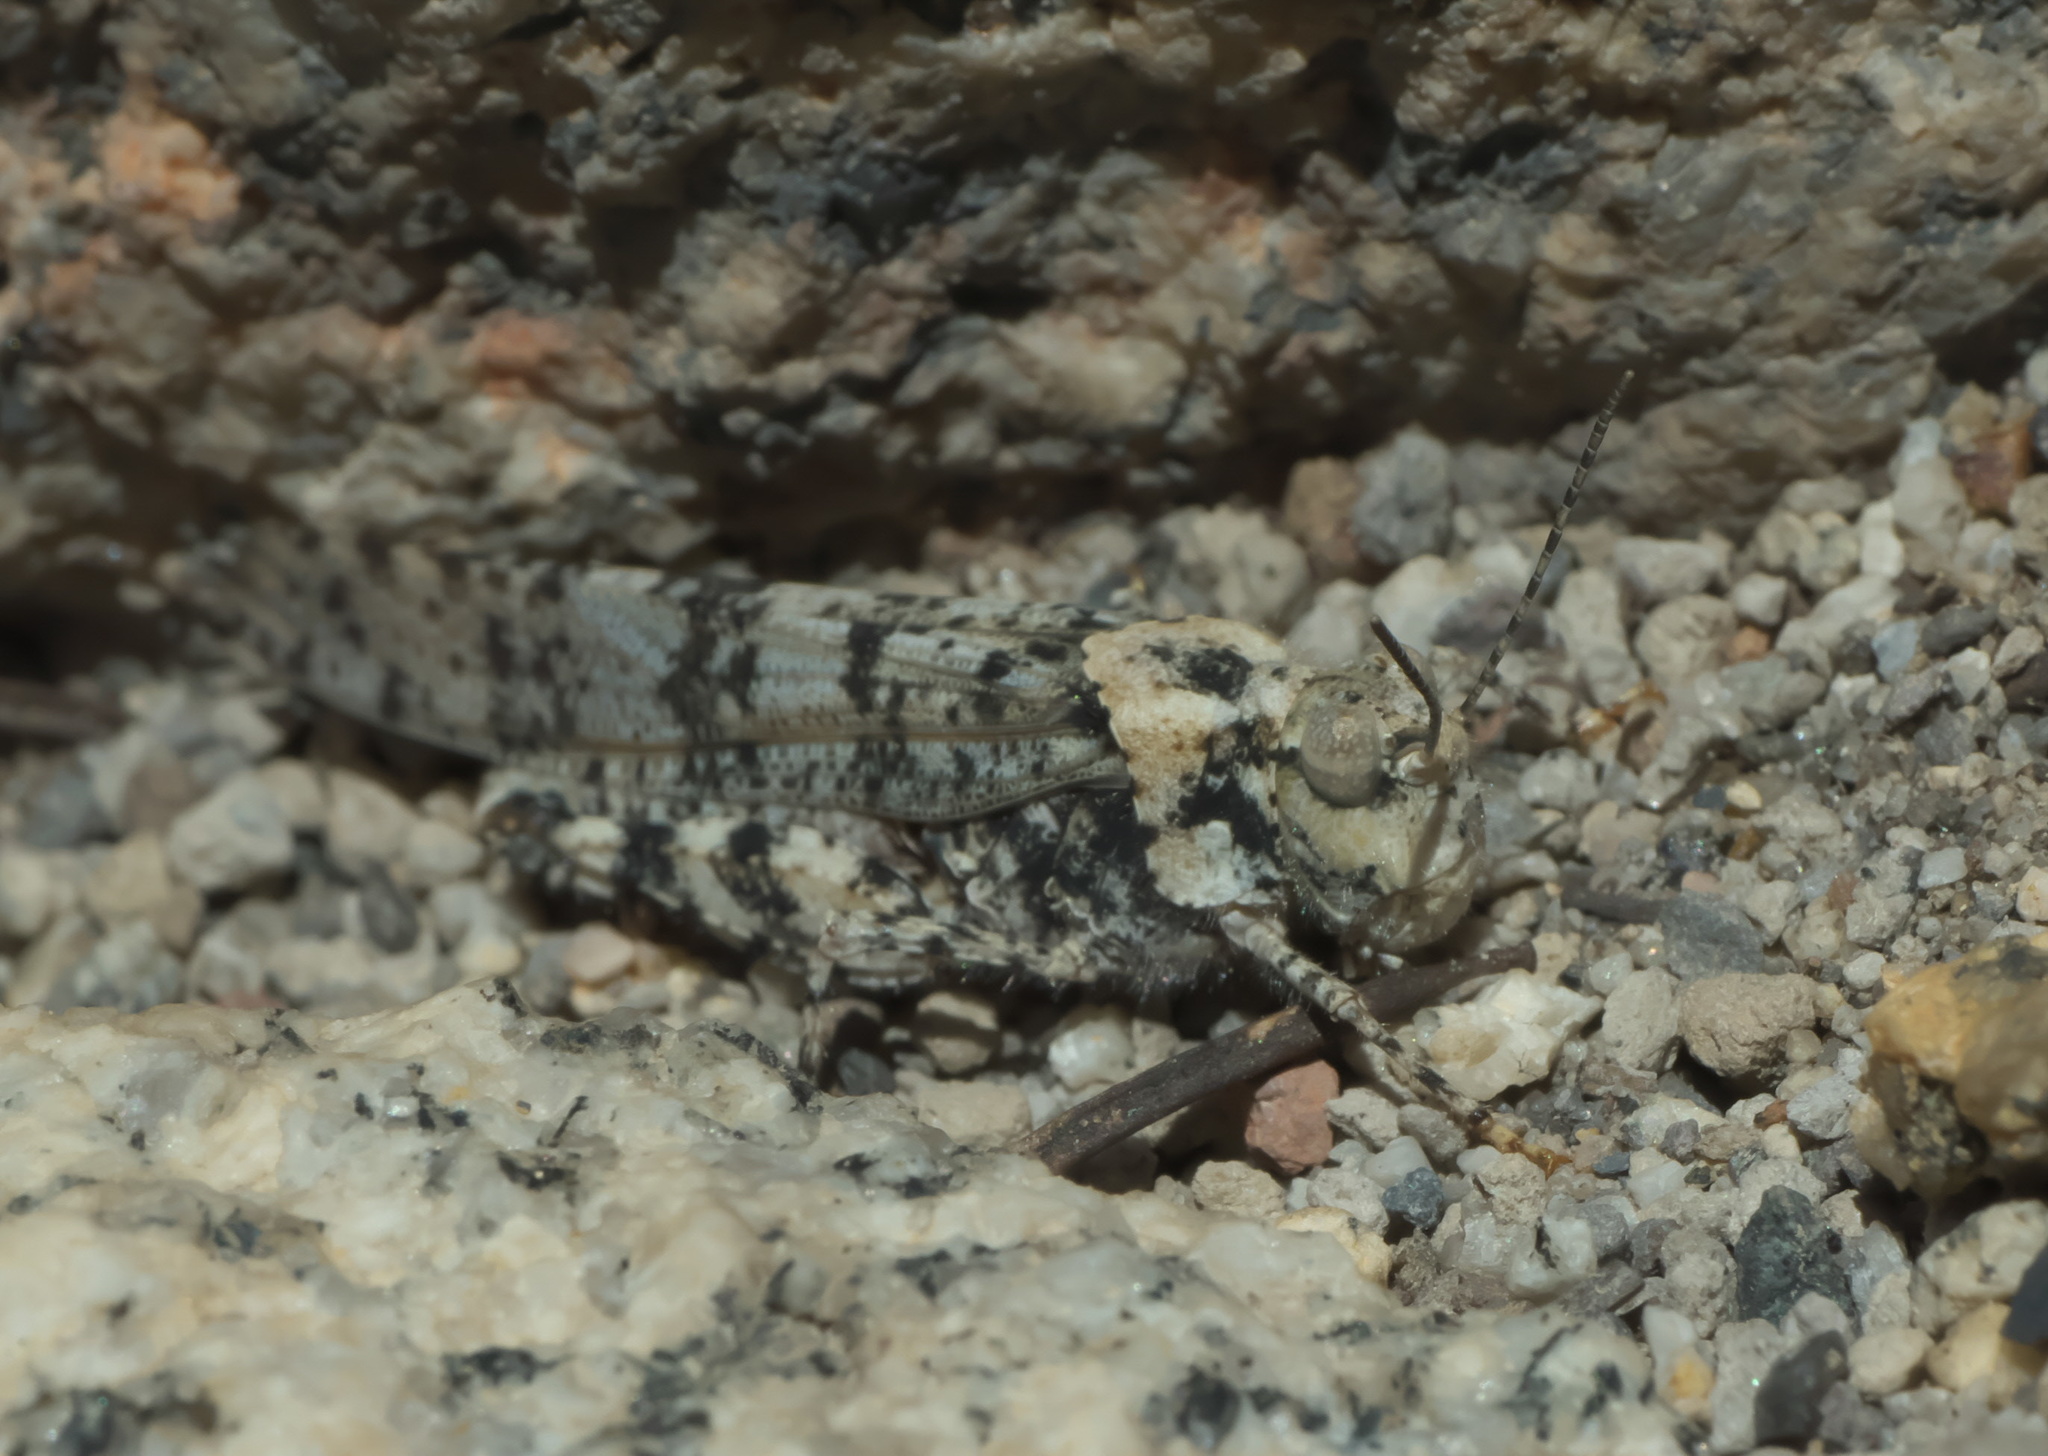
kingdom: Animalia
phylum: Arthropoda
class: Insecta
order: Orthoptera
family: Acrididae
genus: Trimerotropis
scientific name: Trimerotropis albescens
